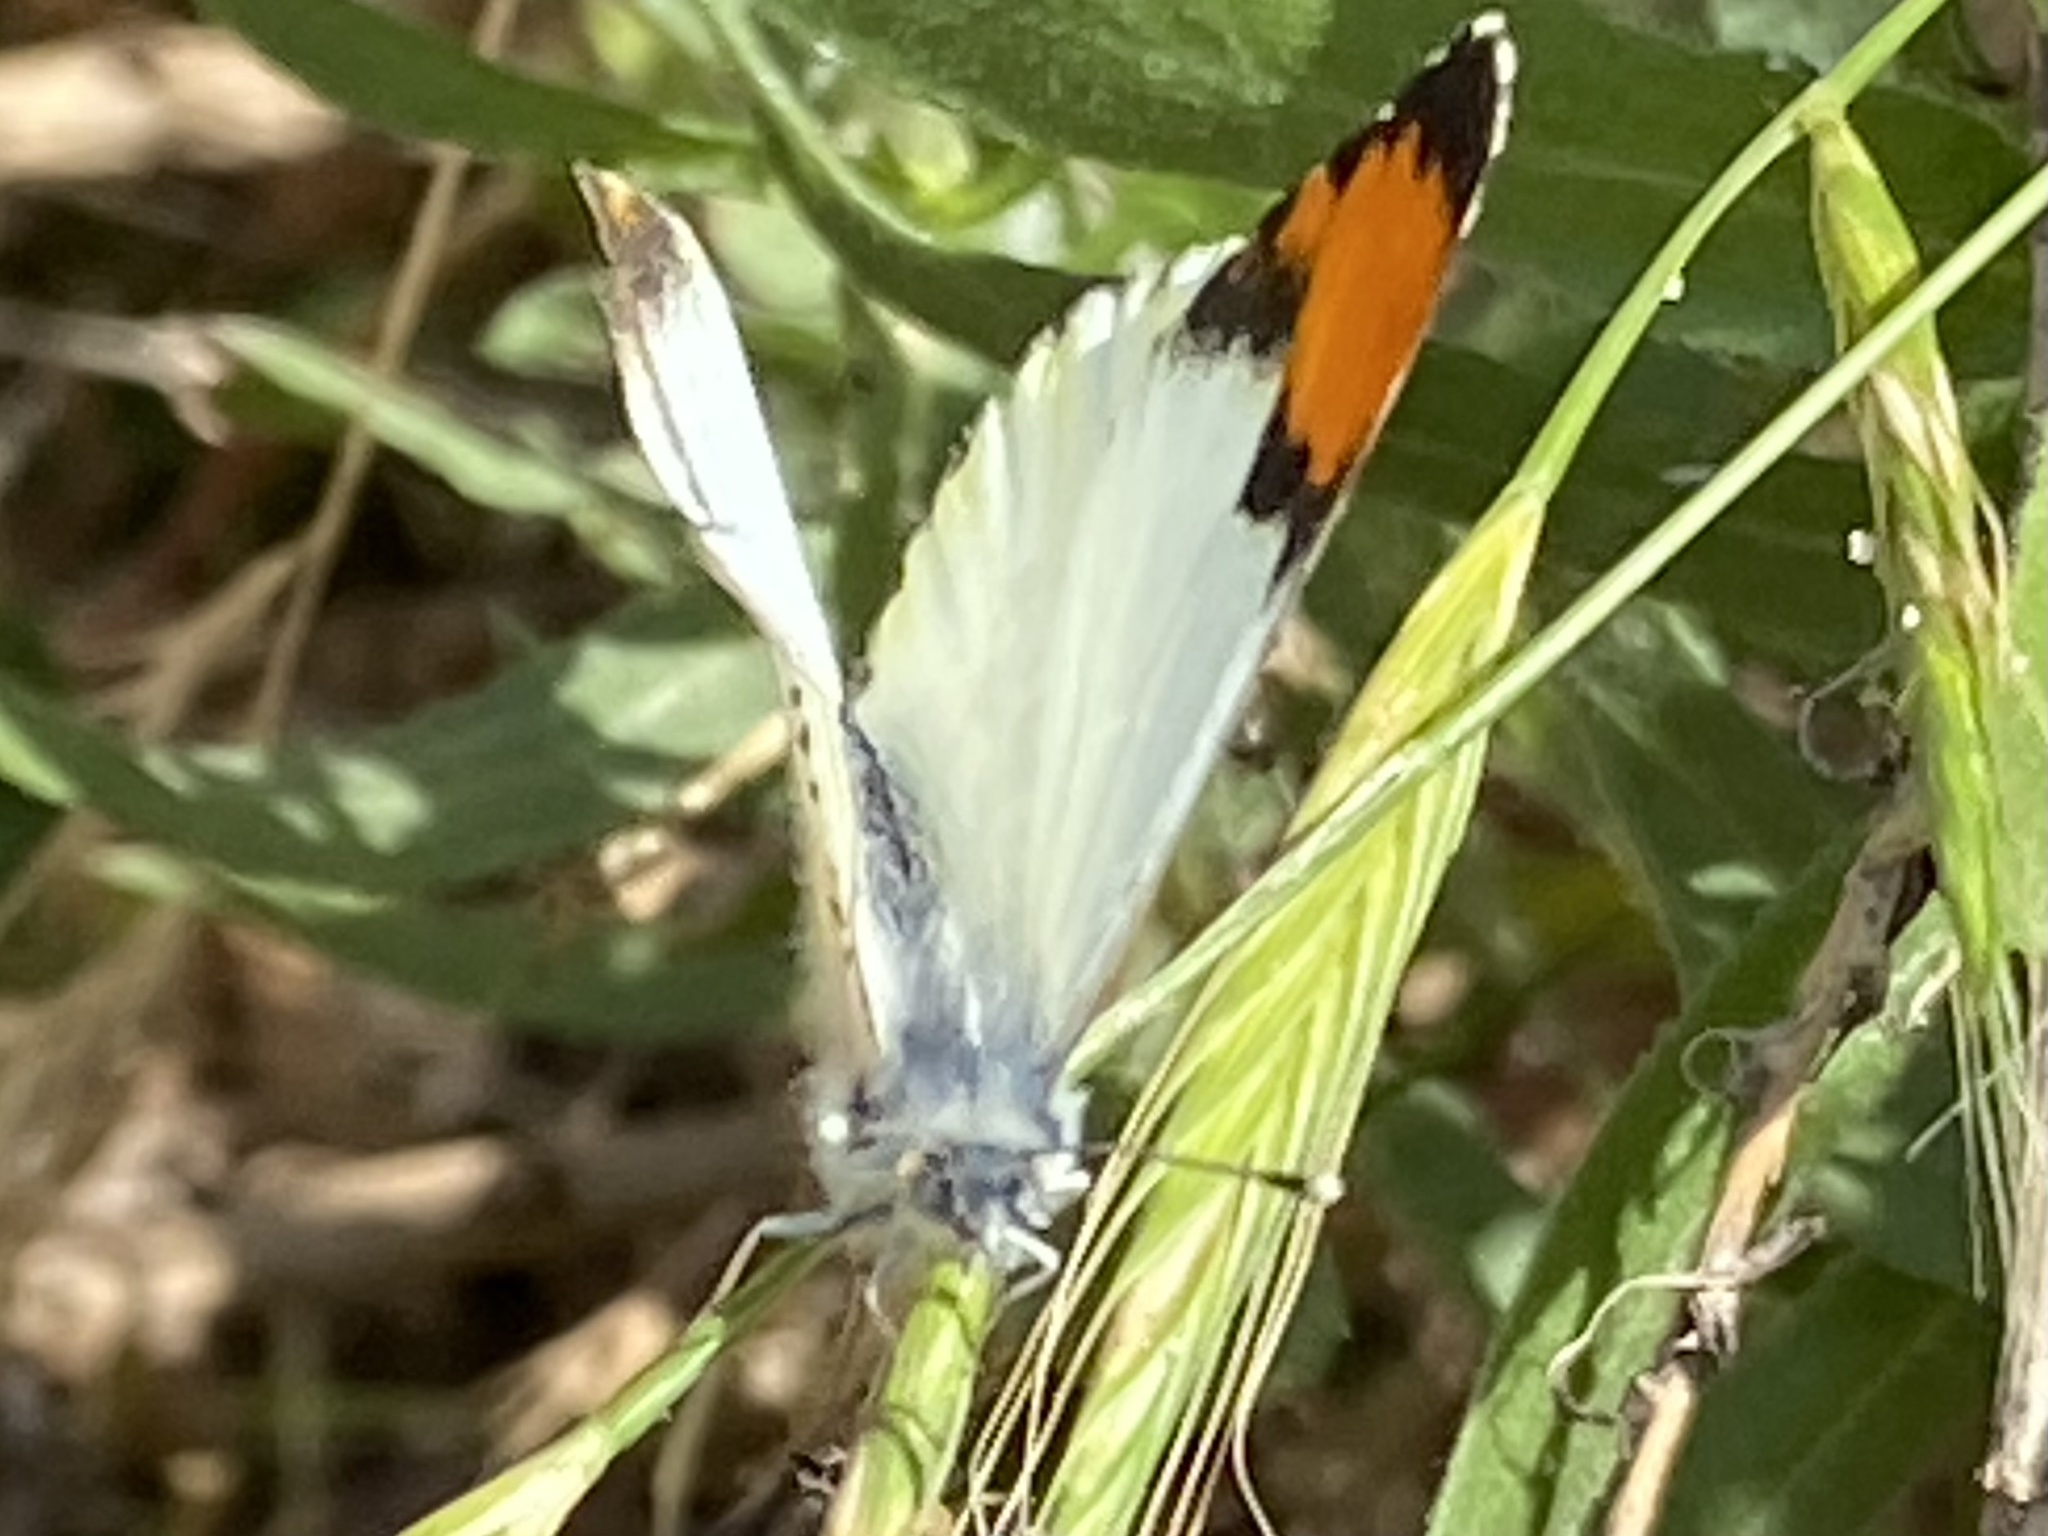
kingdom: Animalia
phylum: Arthropoda
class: Insecta
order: Lepidoptera
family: Pieridae
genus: Anthocharis
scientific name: Anthocharis sara
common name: Sara's orangetip
